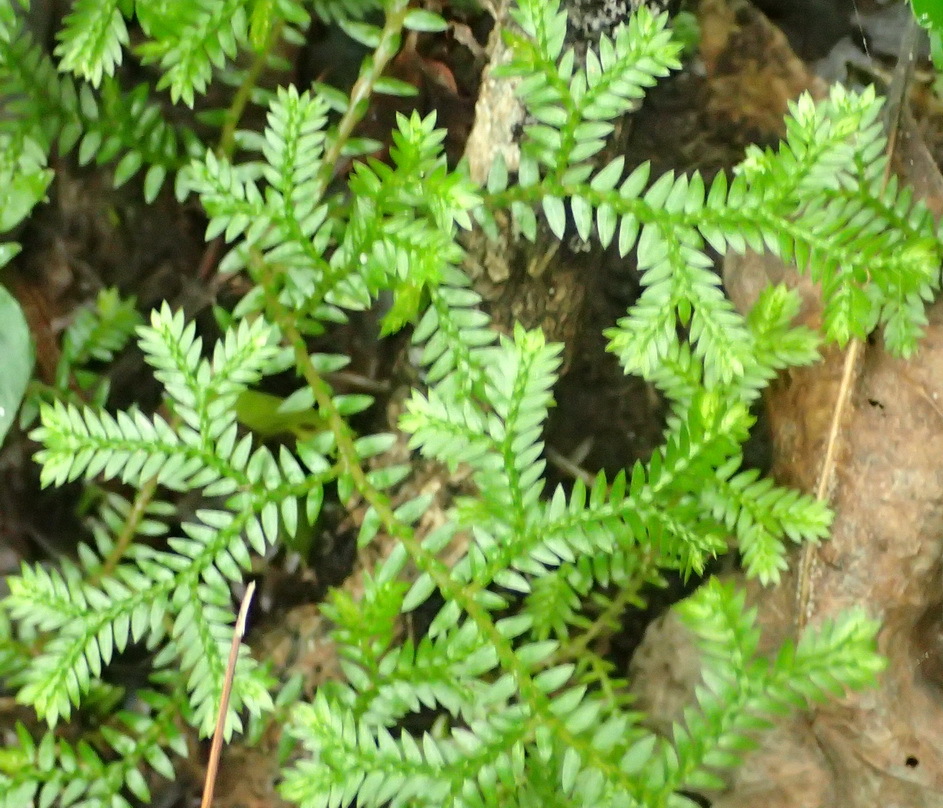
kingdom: Plantae
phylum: Tracheophyta
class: Lycopodiopsida
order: Selaginellales
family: Selaginellaceae
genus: Selaginella
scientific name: Selaginella kraussiana
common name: Krauss' spikemoss
